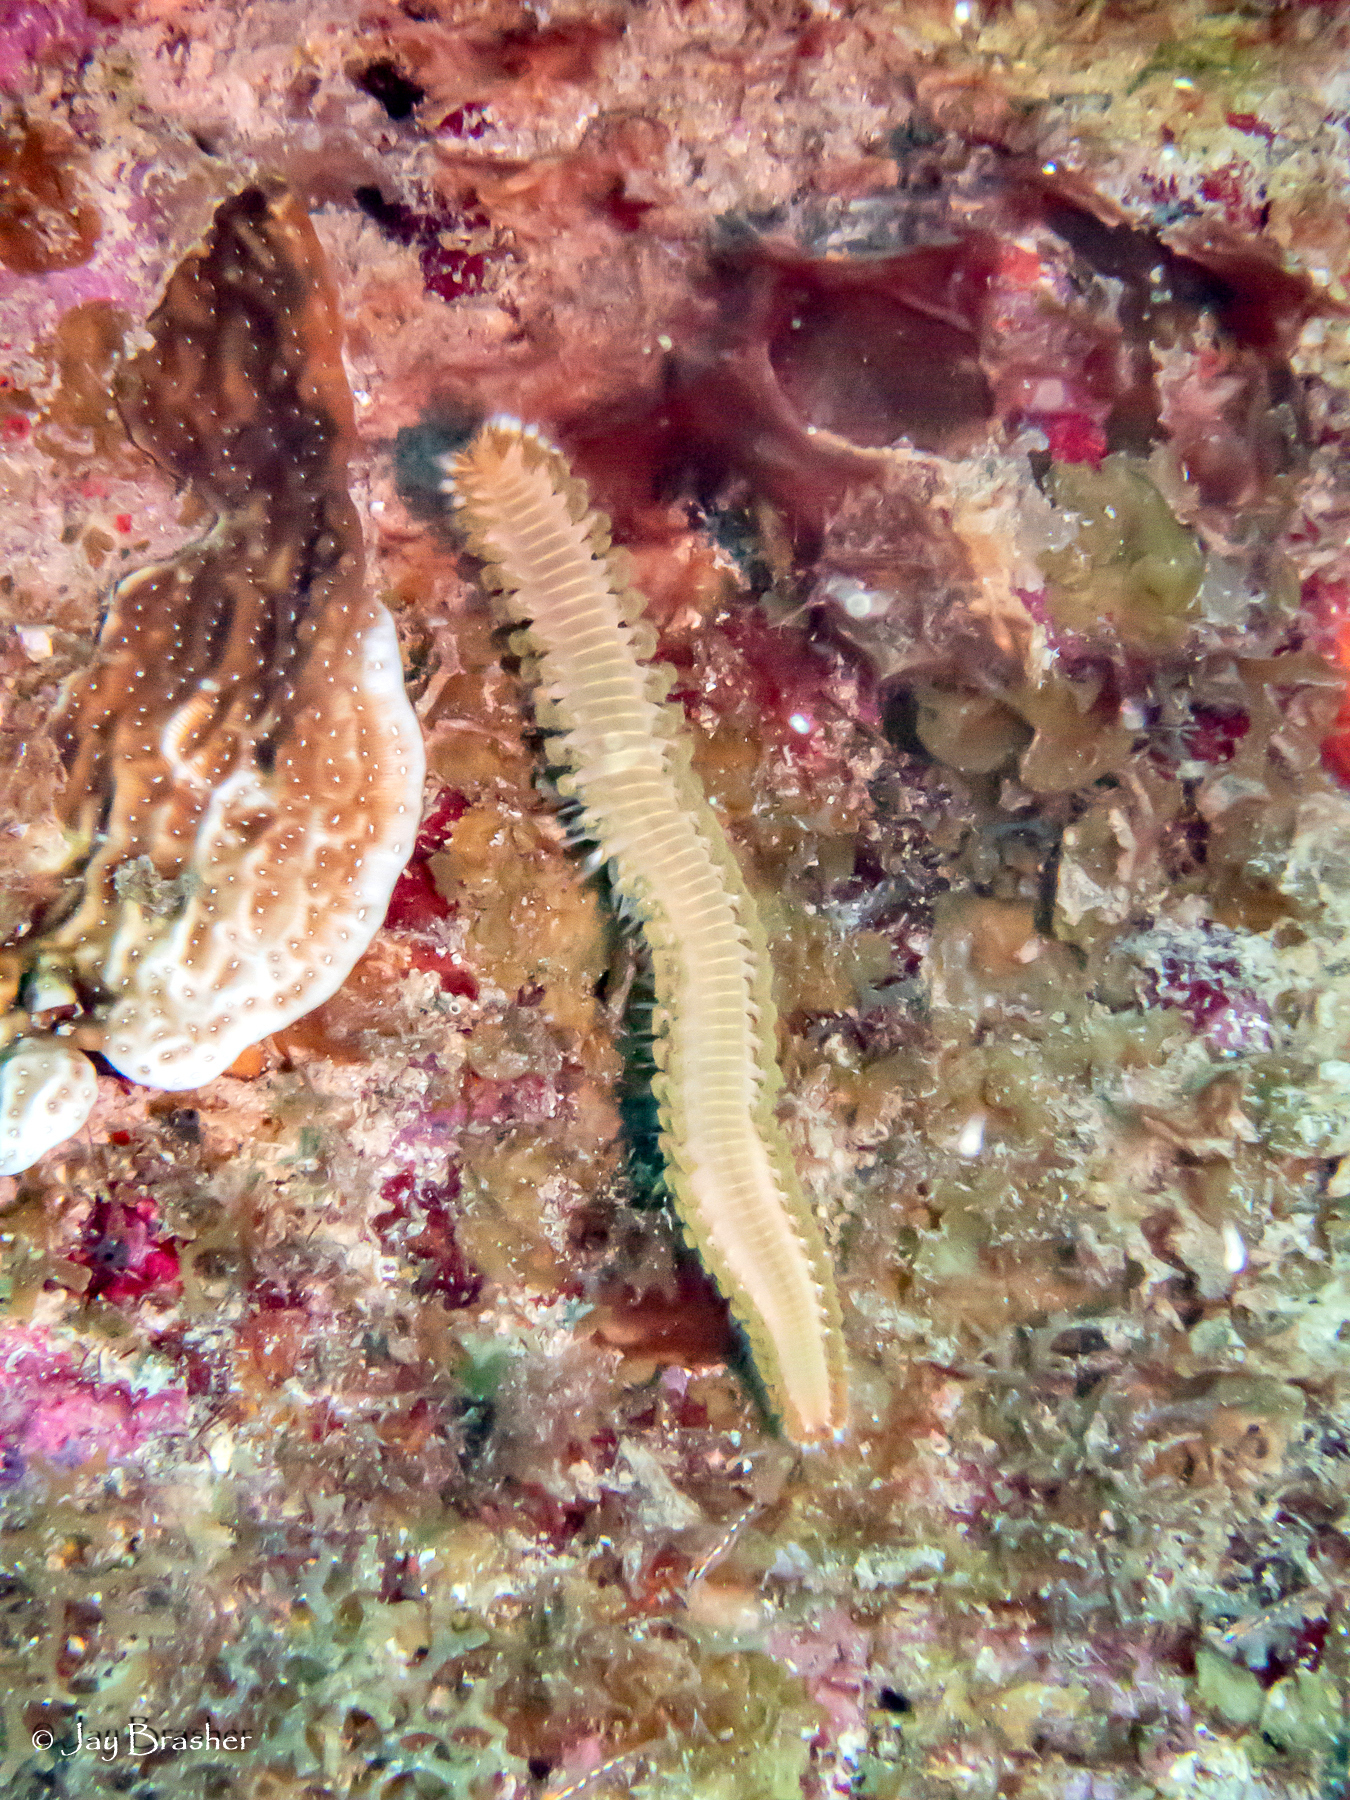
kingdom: Animalia
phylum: Annelida
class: Polychaeta
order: Amphinomida
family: Amphinomidae
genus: Hermodice
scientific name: Hermodice carunculata
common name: Bearded fireworm
